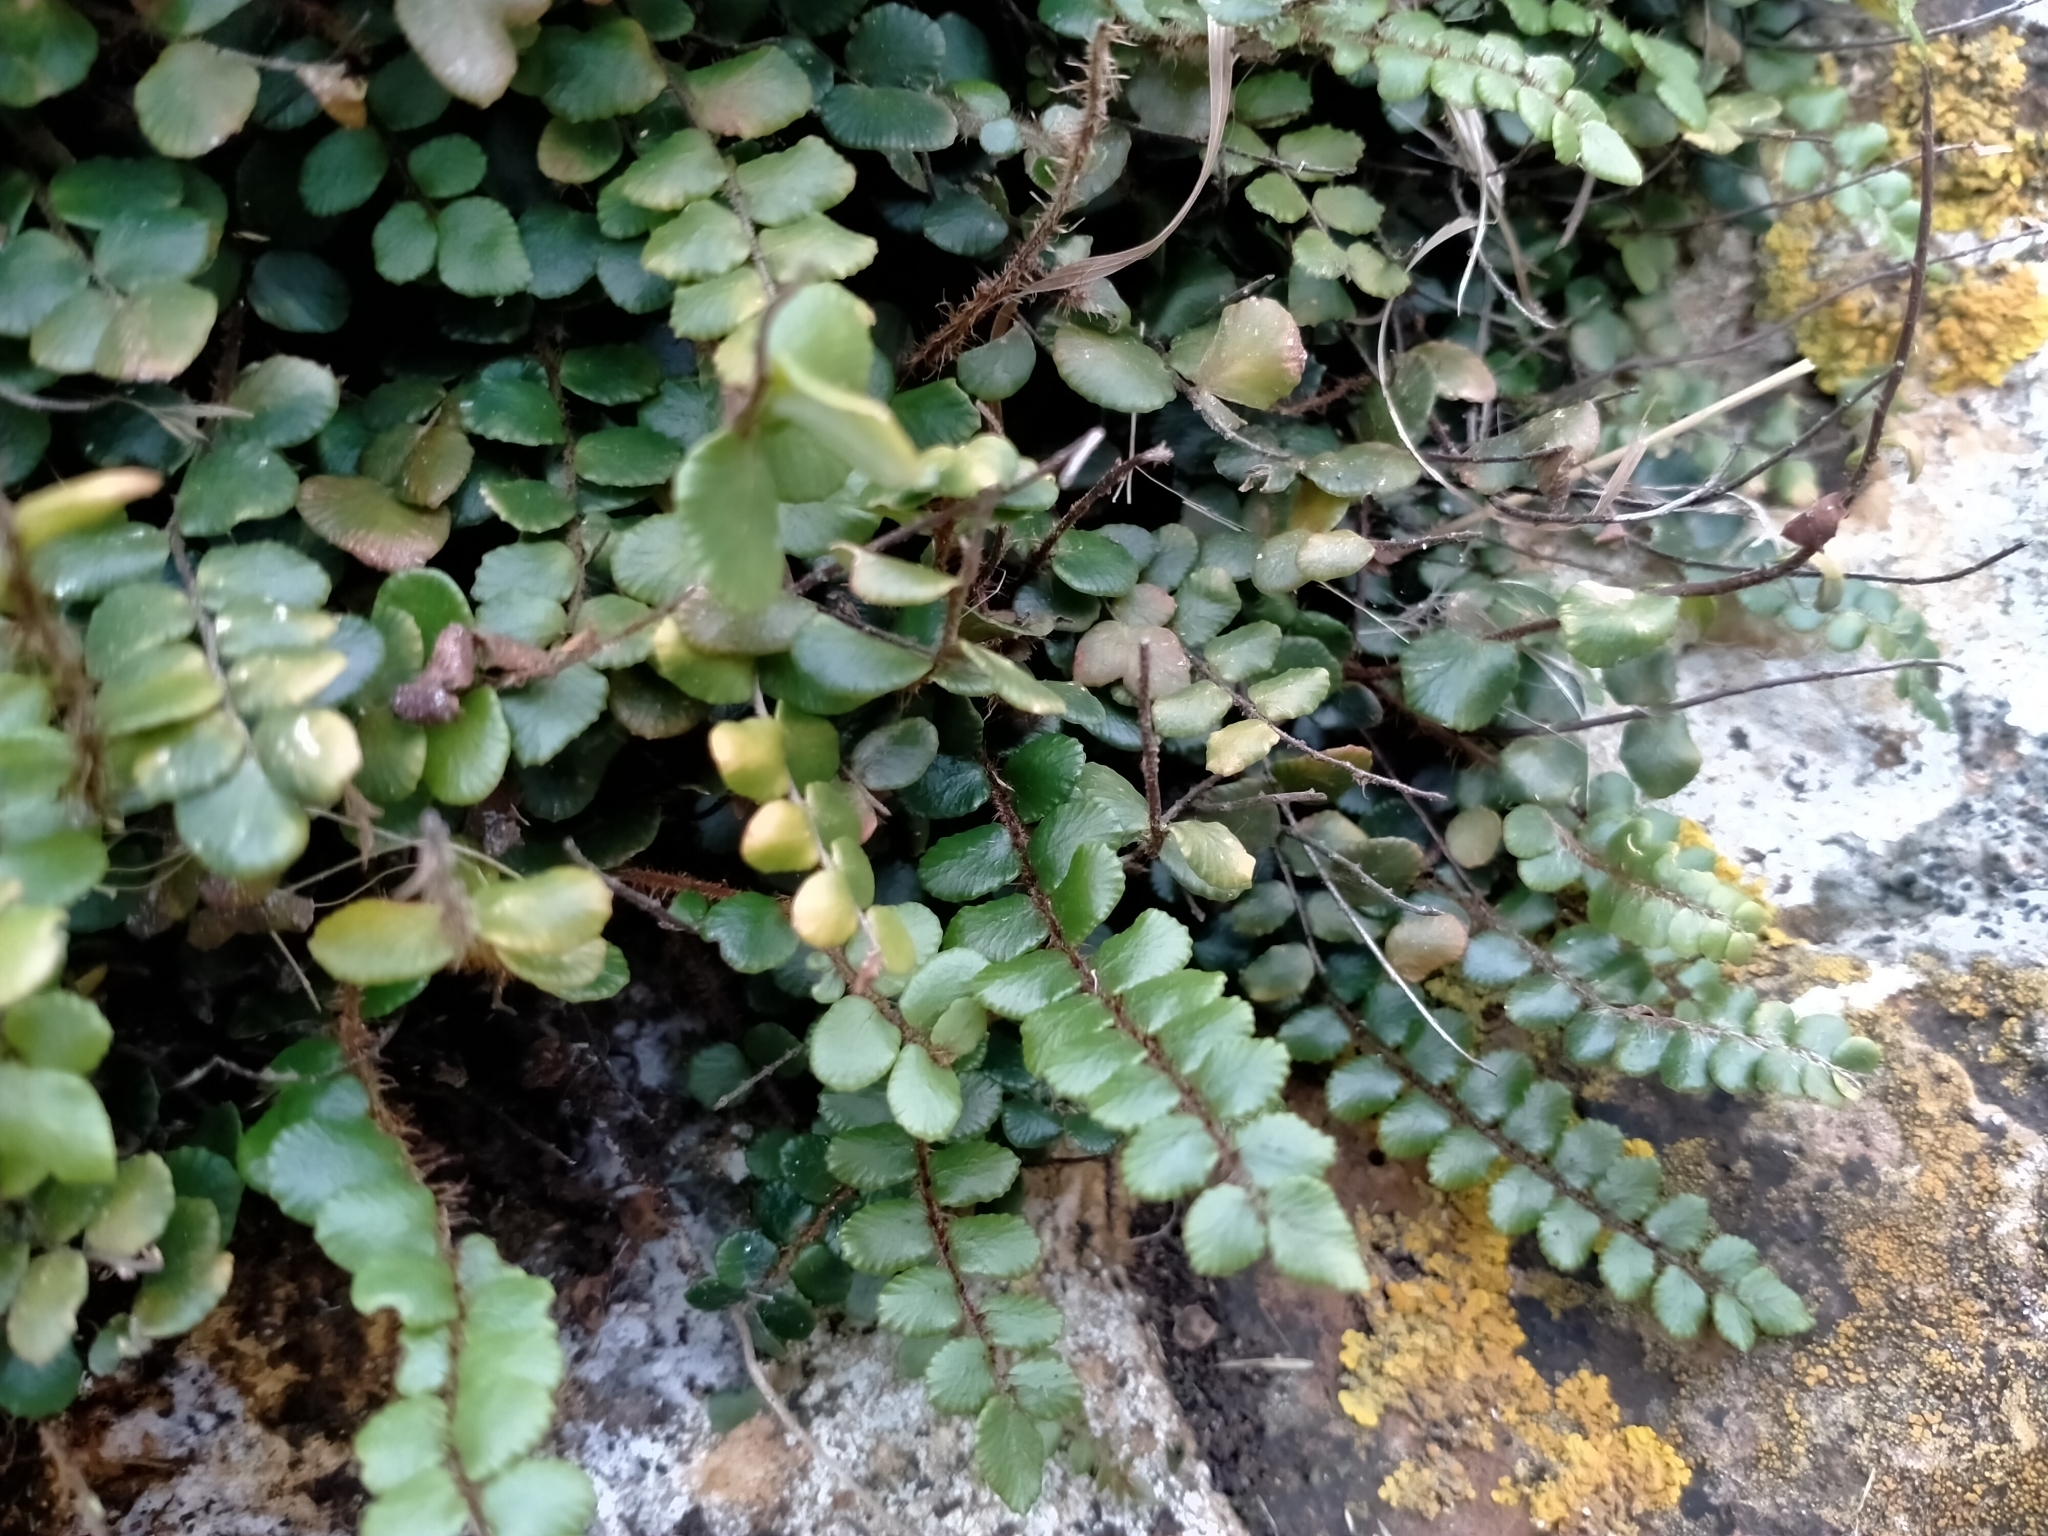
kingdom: Plantae
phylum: Tracheophyta
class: Polypodiopsida
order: Polypodiales
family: Pteridaceae
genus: Pellaea
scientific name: Pellaea rotundifolia
